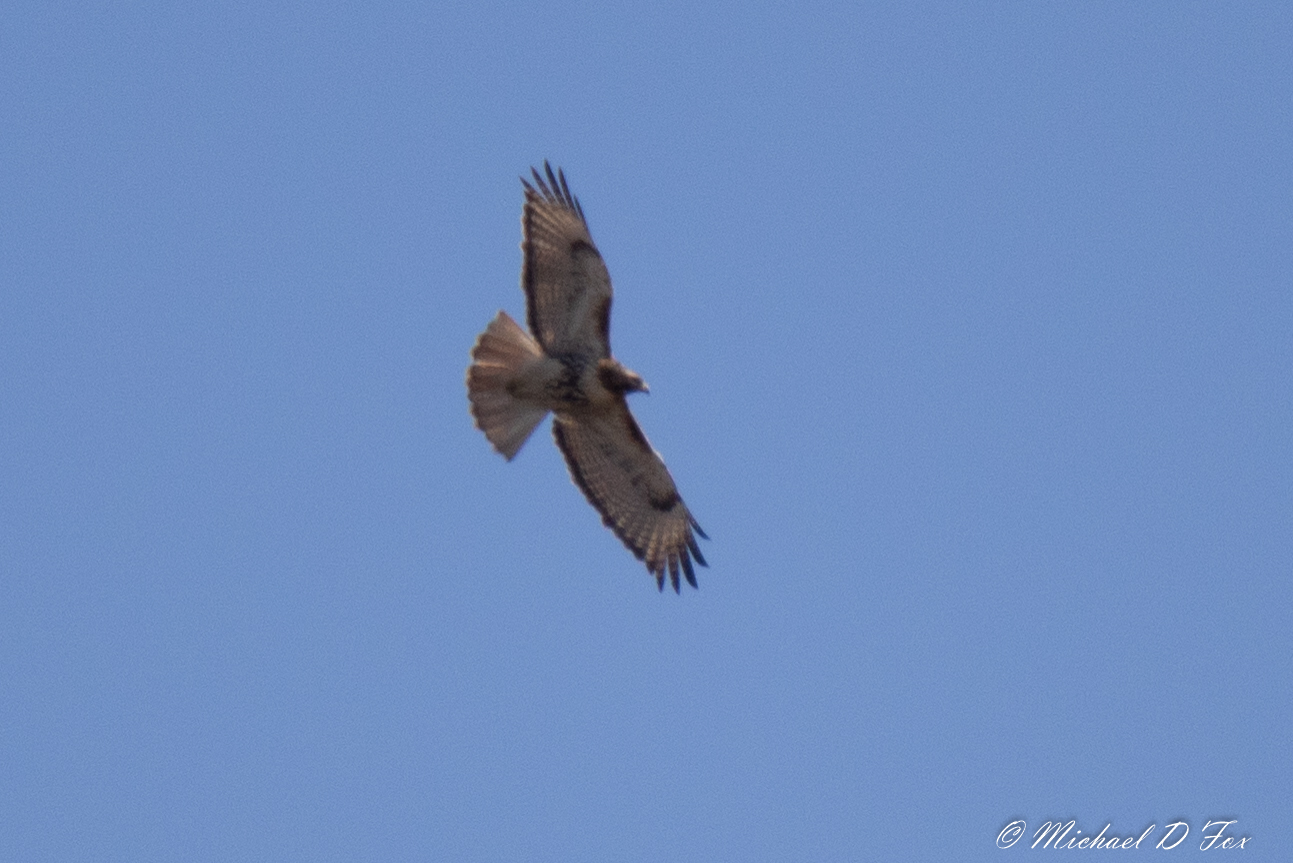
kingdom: Animalia
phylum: Chordata
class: Aves
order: Accipitriformes
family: Accipitridae
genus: Buteo
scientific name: Buteo jamaicensis
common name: Red-tailed hawk
